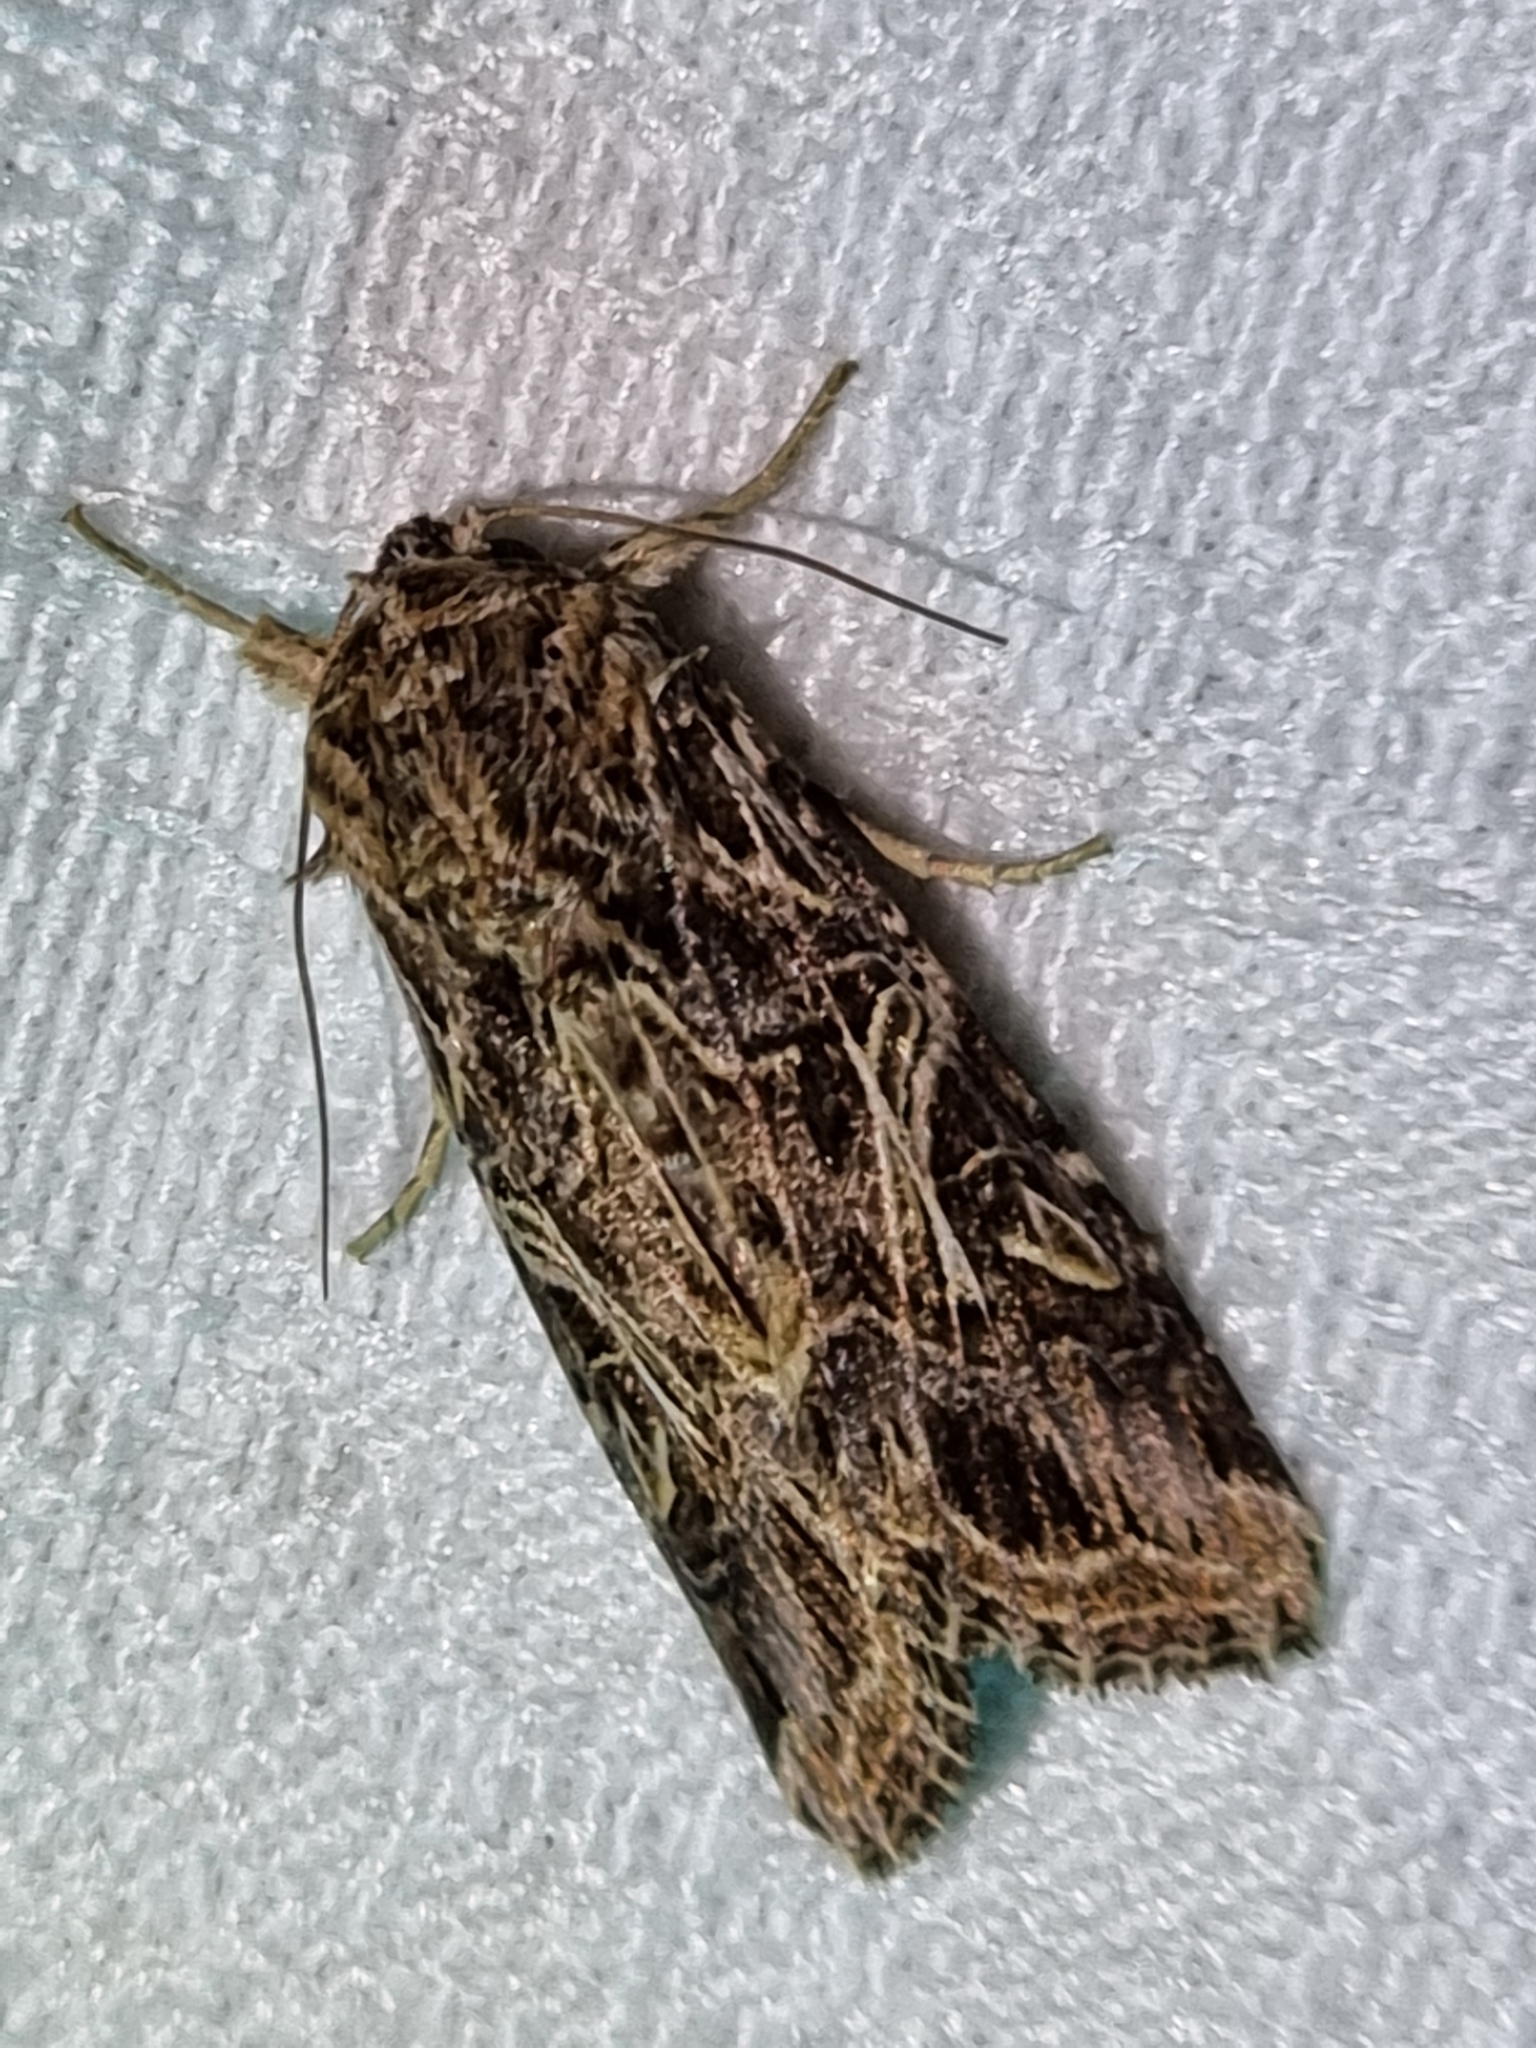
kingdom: Animalia
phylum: Arthropoda
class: Insecta
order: Lepidoptera
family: Noctuidae
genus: Spodoptera
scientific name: Spodoptera litura
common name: Asian cotton leafworm
